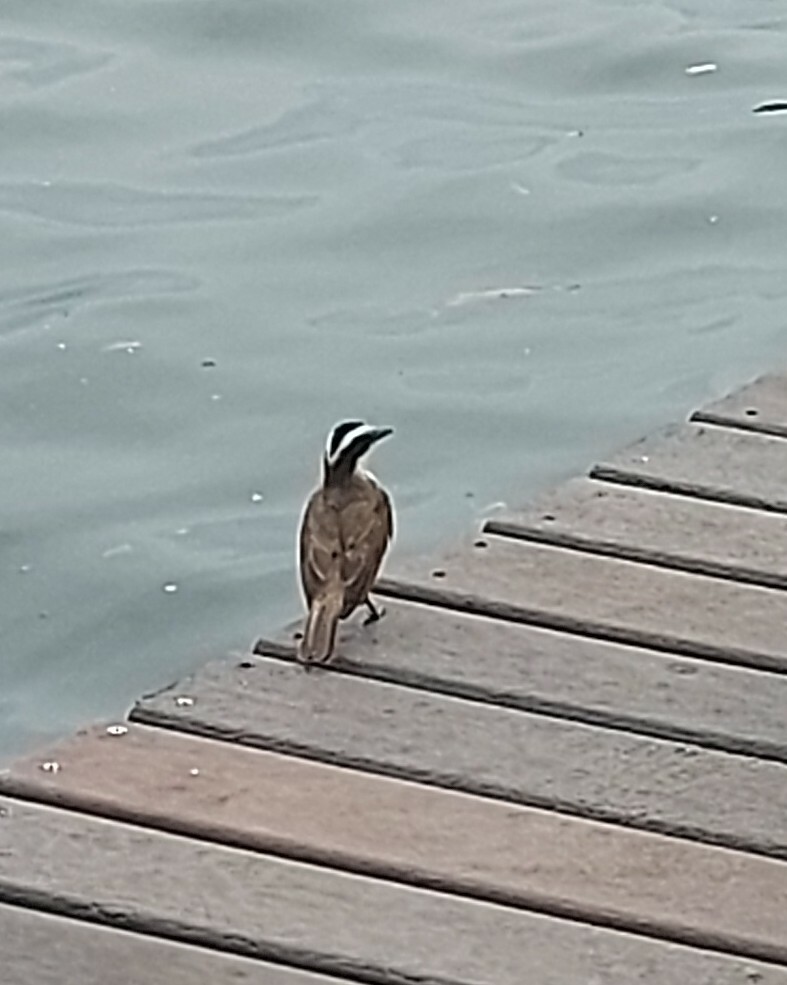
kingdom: Animalia
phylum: Chordata
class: Aves
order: Passeriformes
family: Tyrannidae
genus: Pitangus
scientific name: Pitangus sulphuratus
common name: Great kiskadee
